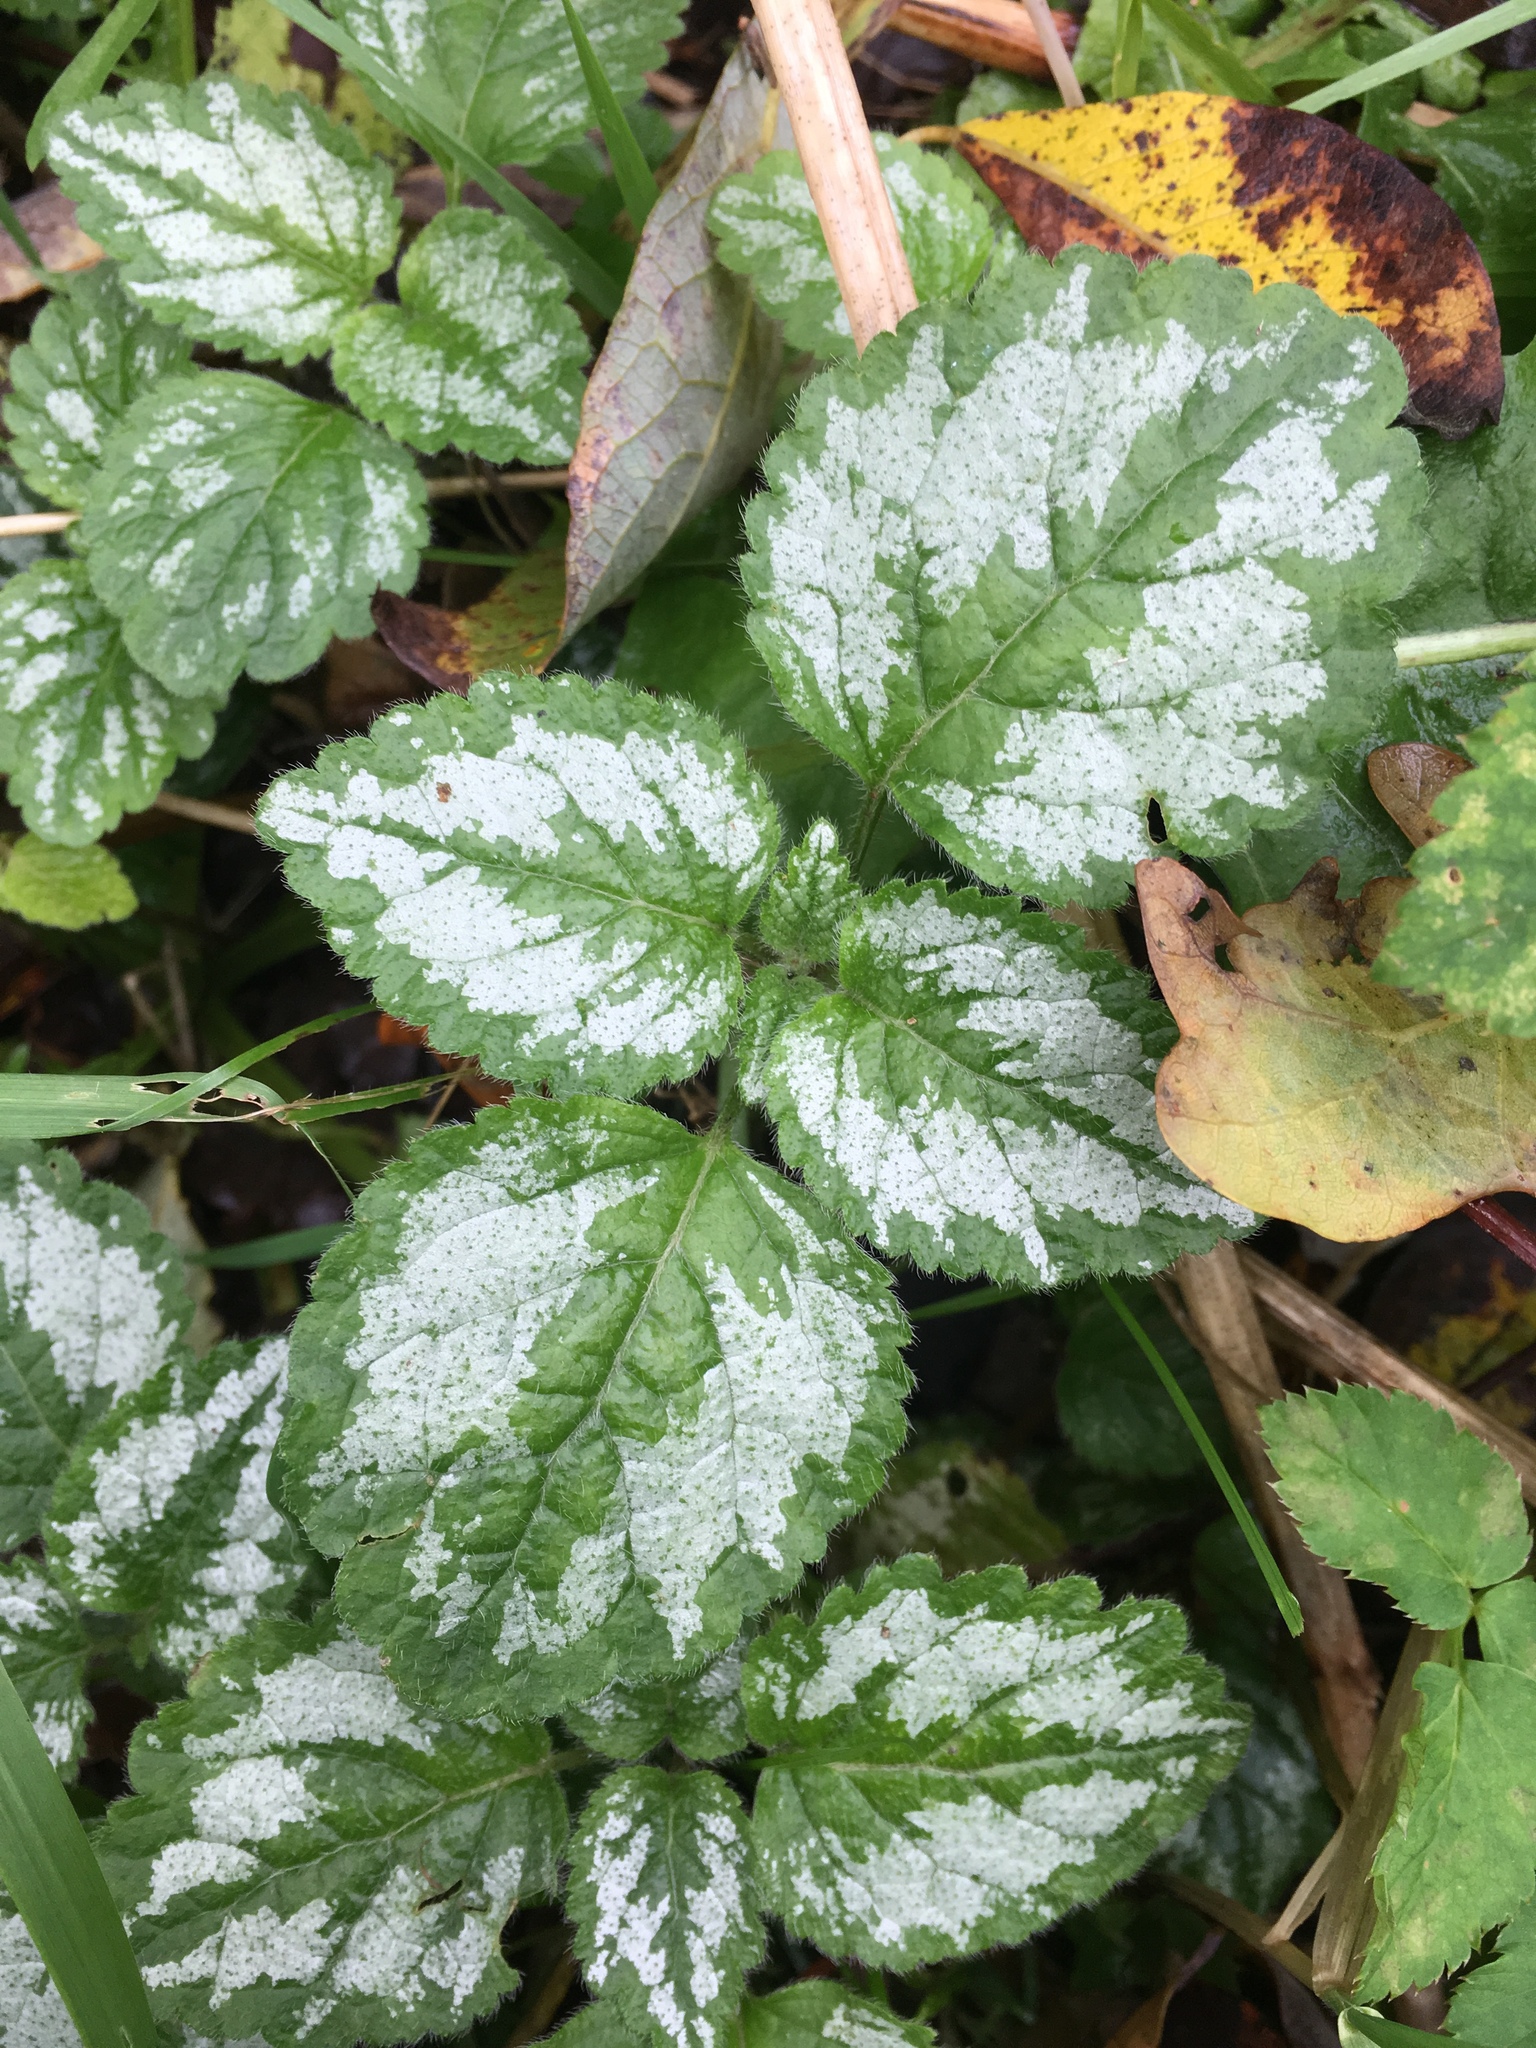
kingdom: Plantae
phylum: Tracheophyta
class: Magnoliopsida
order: Lamiales
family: Lamiaceae
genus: Lamium
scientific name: Lamium galeobdolon
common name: Yellow archangel
